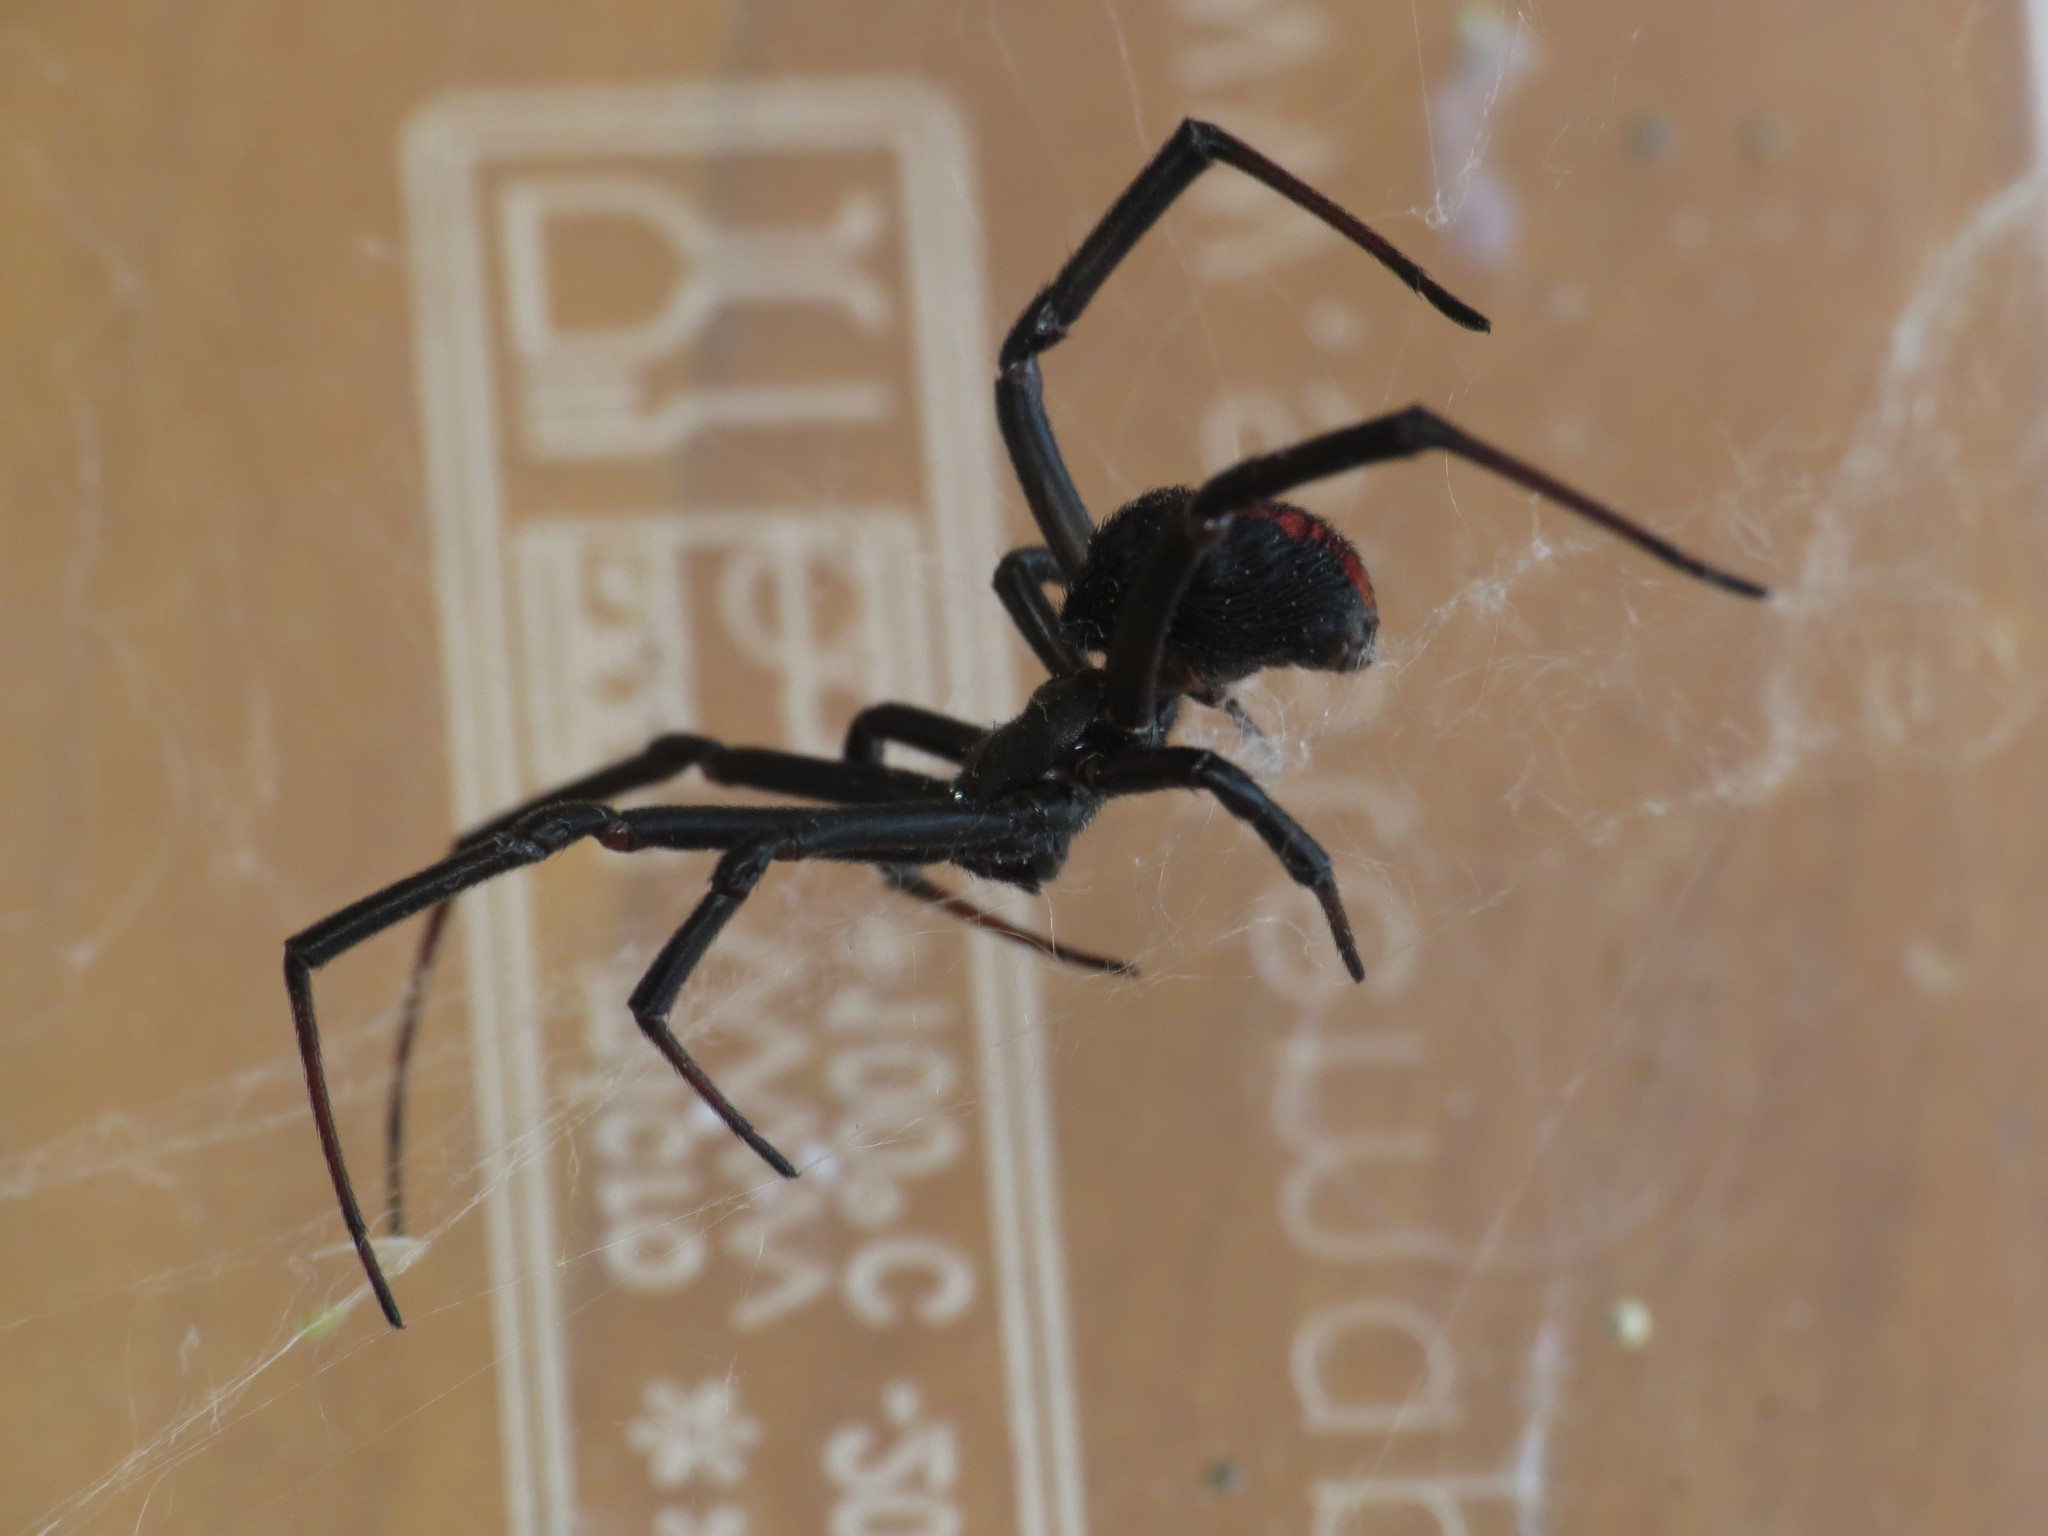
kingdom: Animalia
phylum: Arthropoda
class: Arachnida
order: Araneae
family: Theridiidae
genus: Latrodectus
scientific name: Latrodectus hasselti
